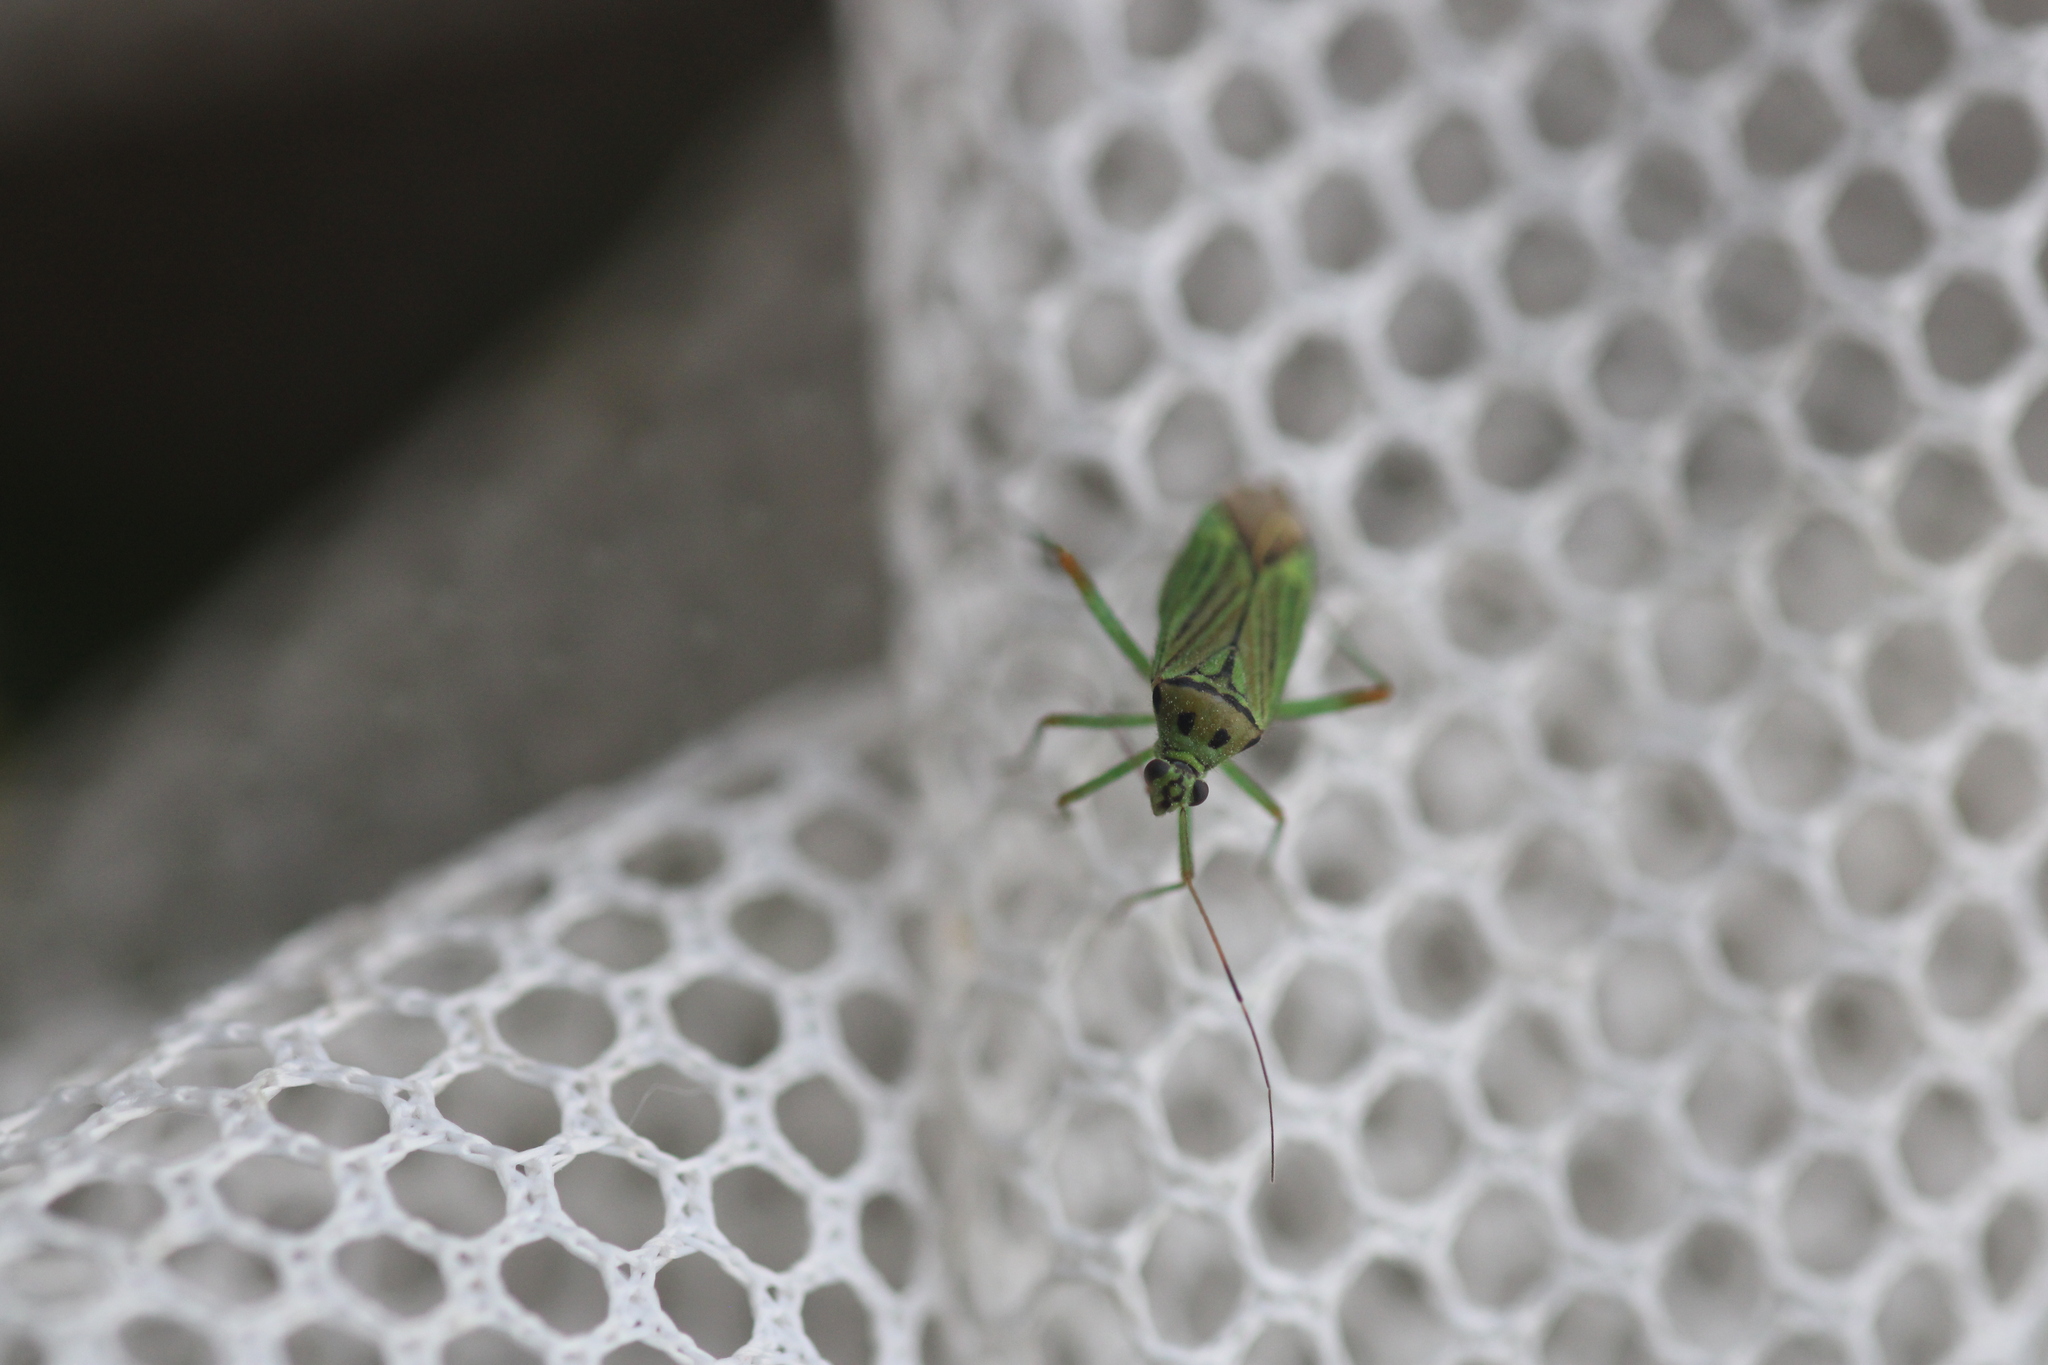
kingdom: Animalia
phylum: Arthropoda
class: Insecta
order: Hemiptera
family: Miridae
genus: Mermitelocerus
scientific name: Mermitelocerus schmidtii
